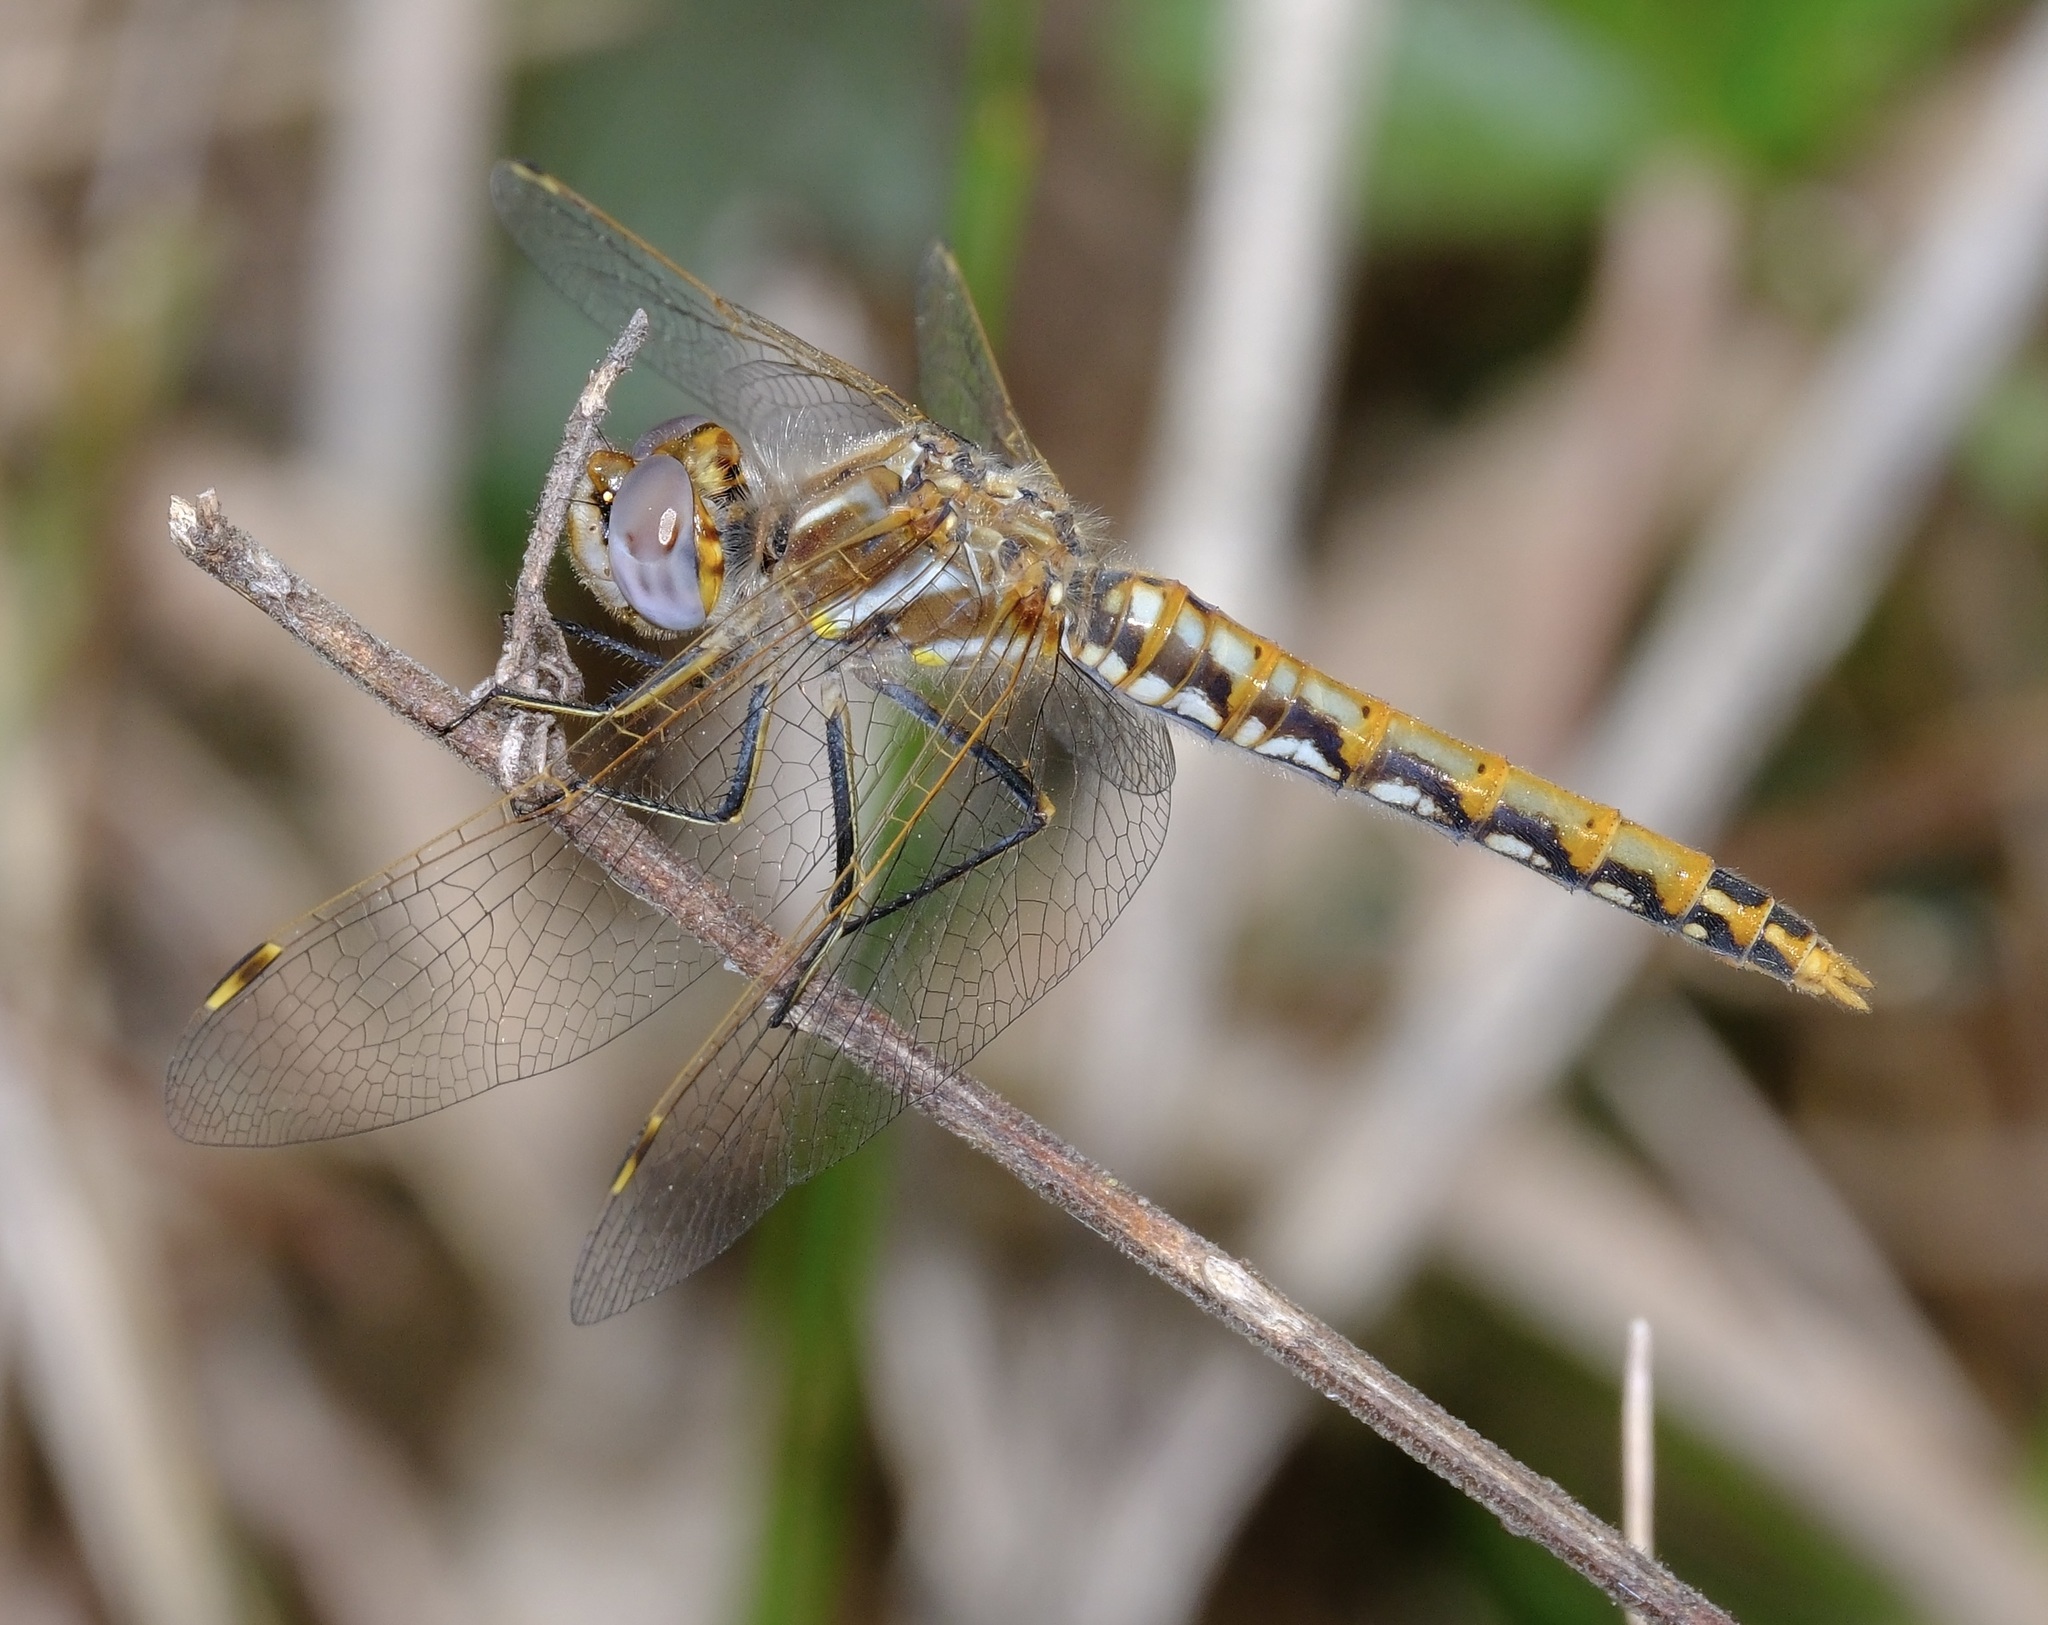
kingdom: Animalia
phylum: Arthropoda
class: Insecta
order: Odonata
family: Libellulidae
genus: Sympetrum
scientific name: Sympetrum corruptum
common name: Variegated meadowhawk
